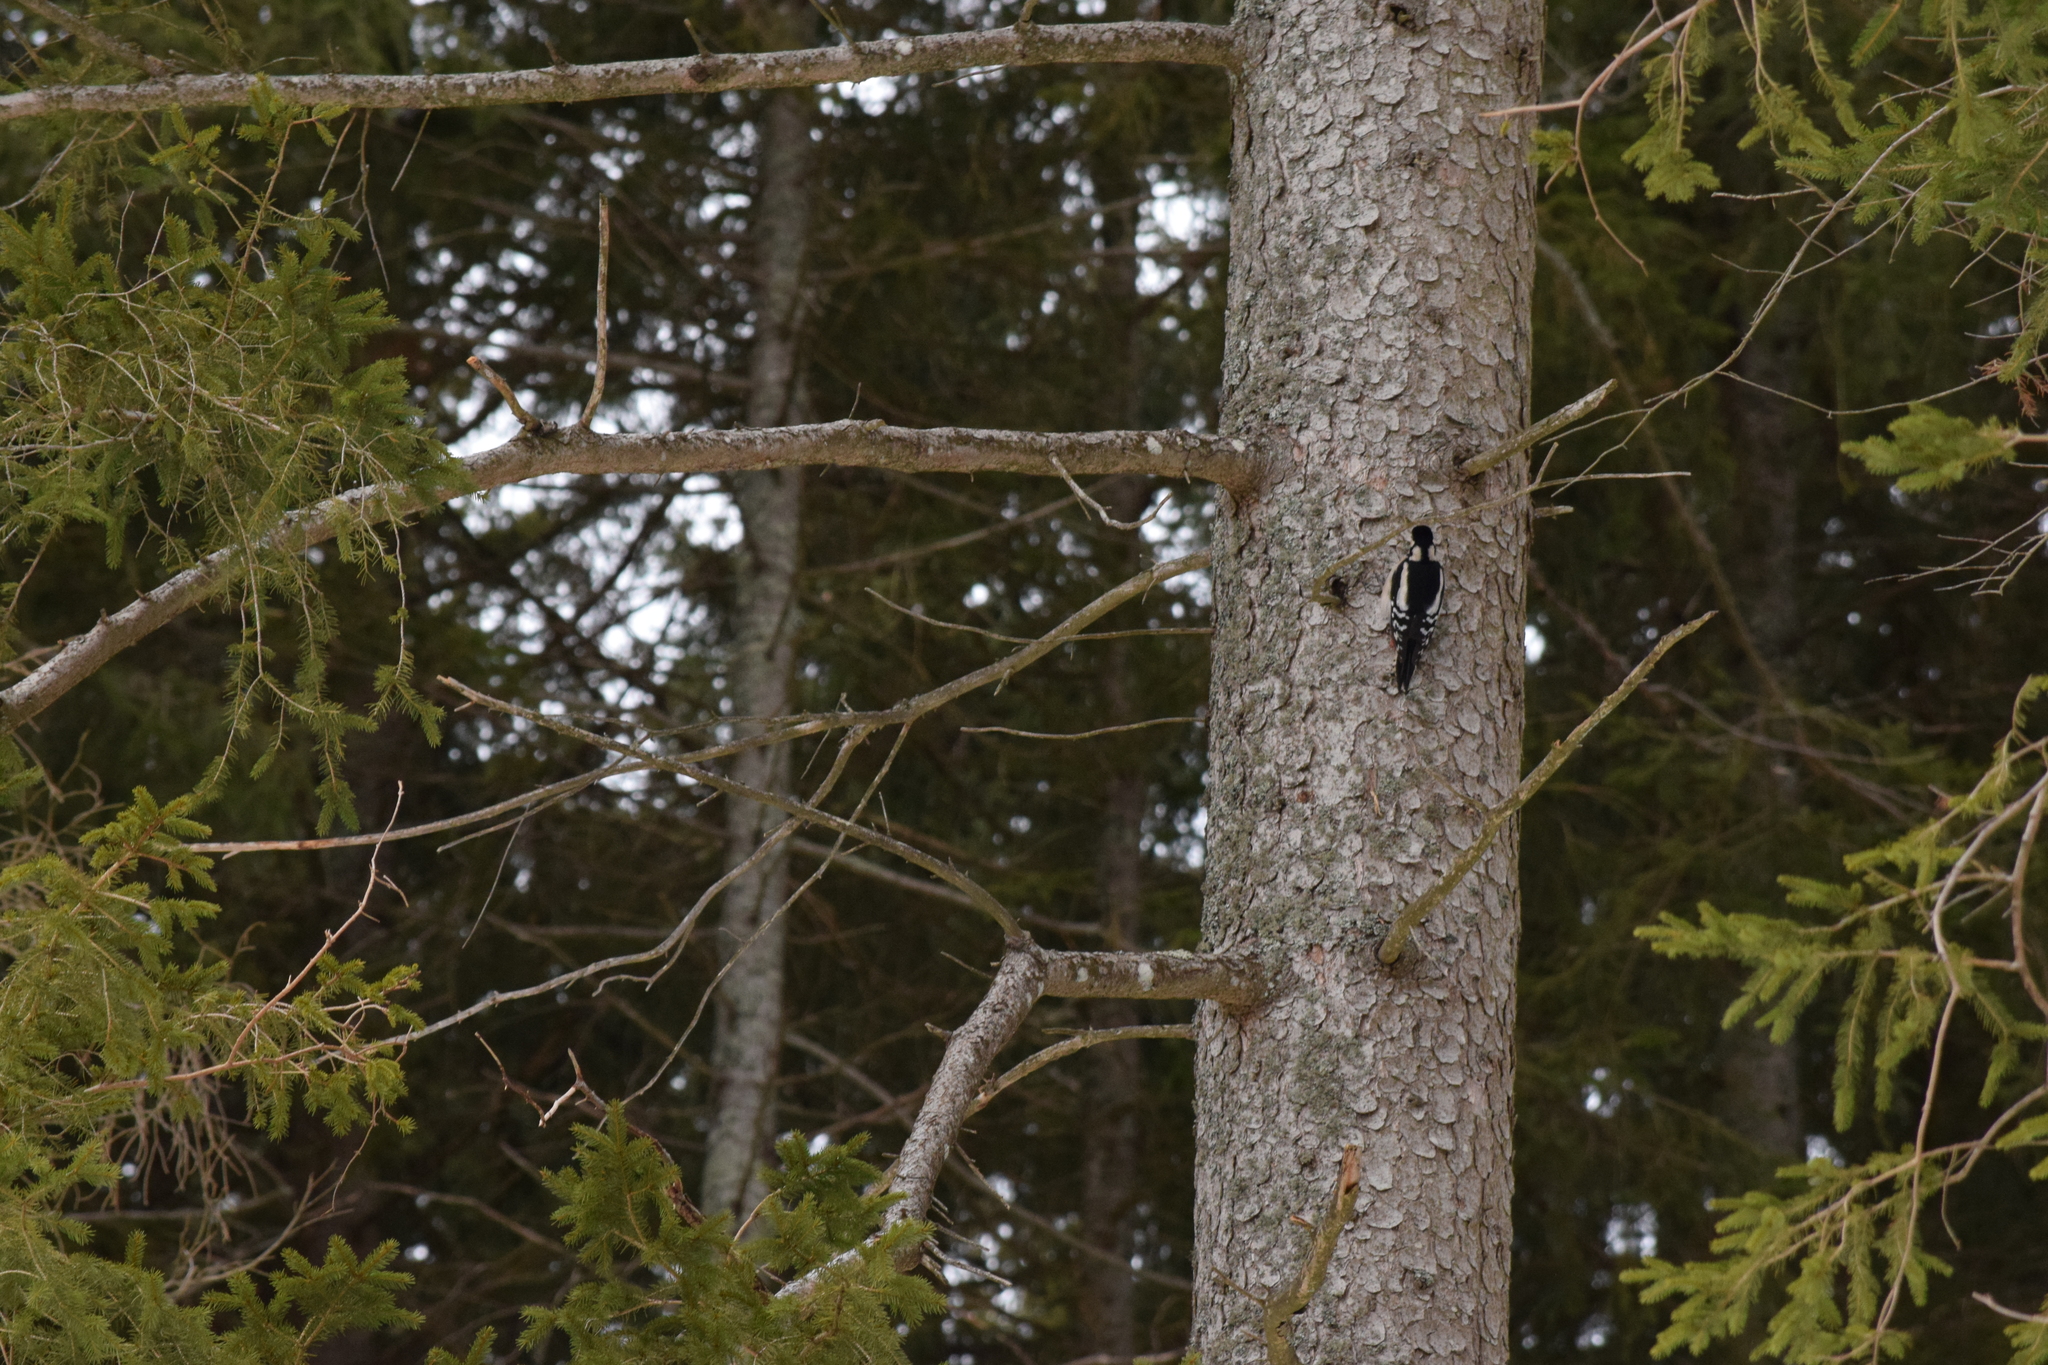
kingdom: Animalia
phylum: Chordata
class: Aves
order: Piciformes
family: Picidae
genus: Dendrocopos
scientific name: Dendrocopos major
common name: Great spotted woodpecker
